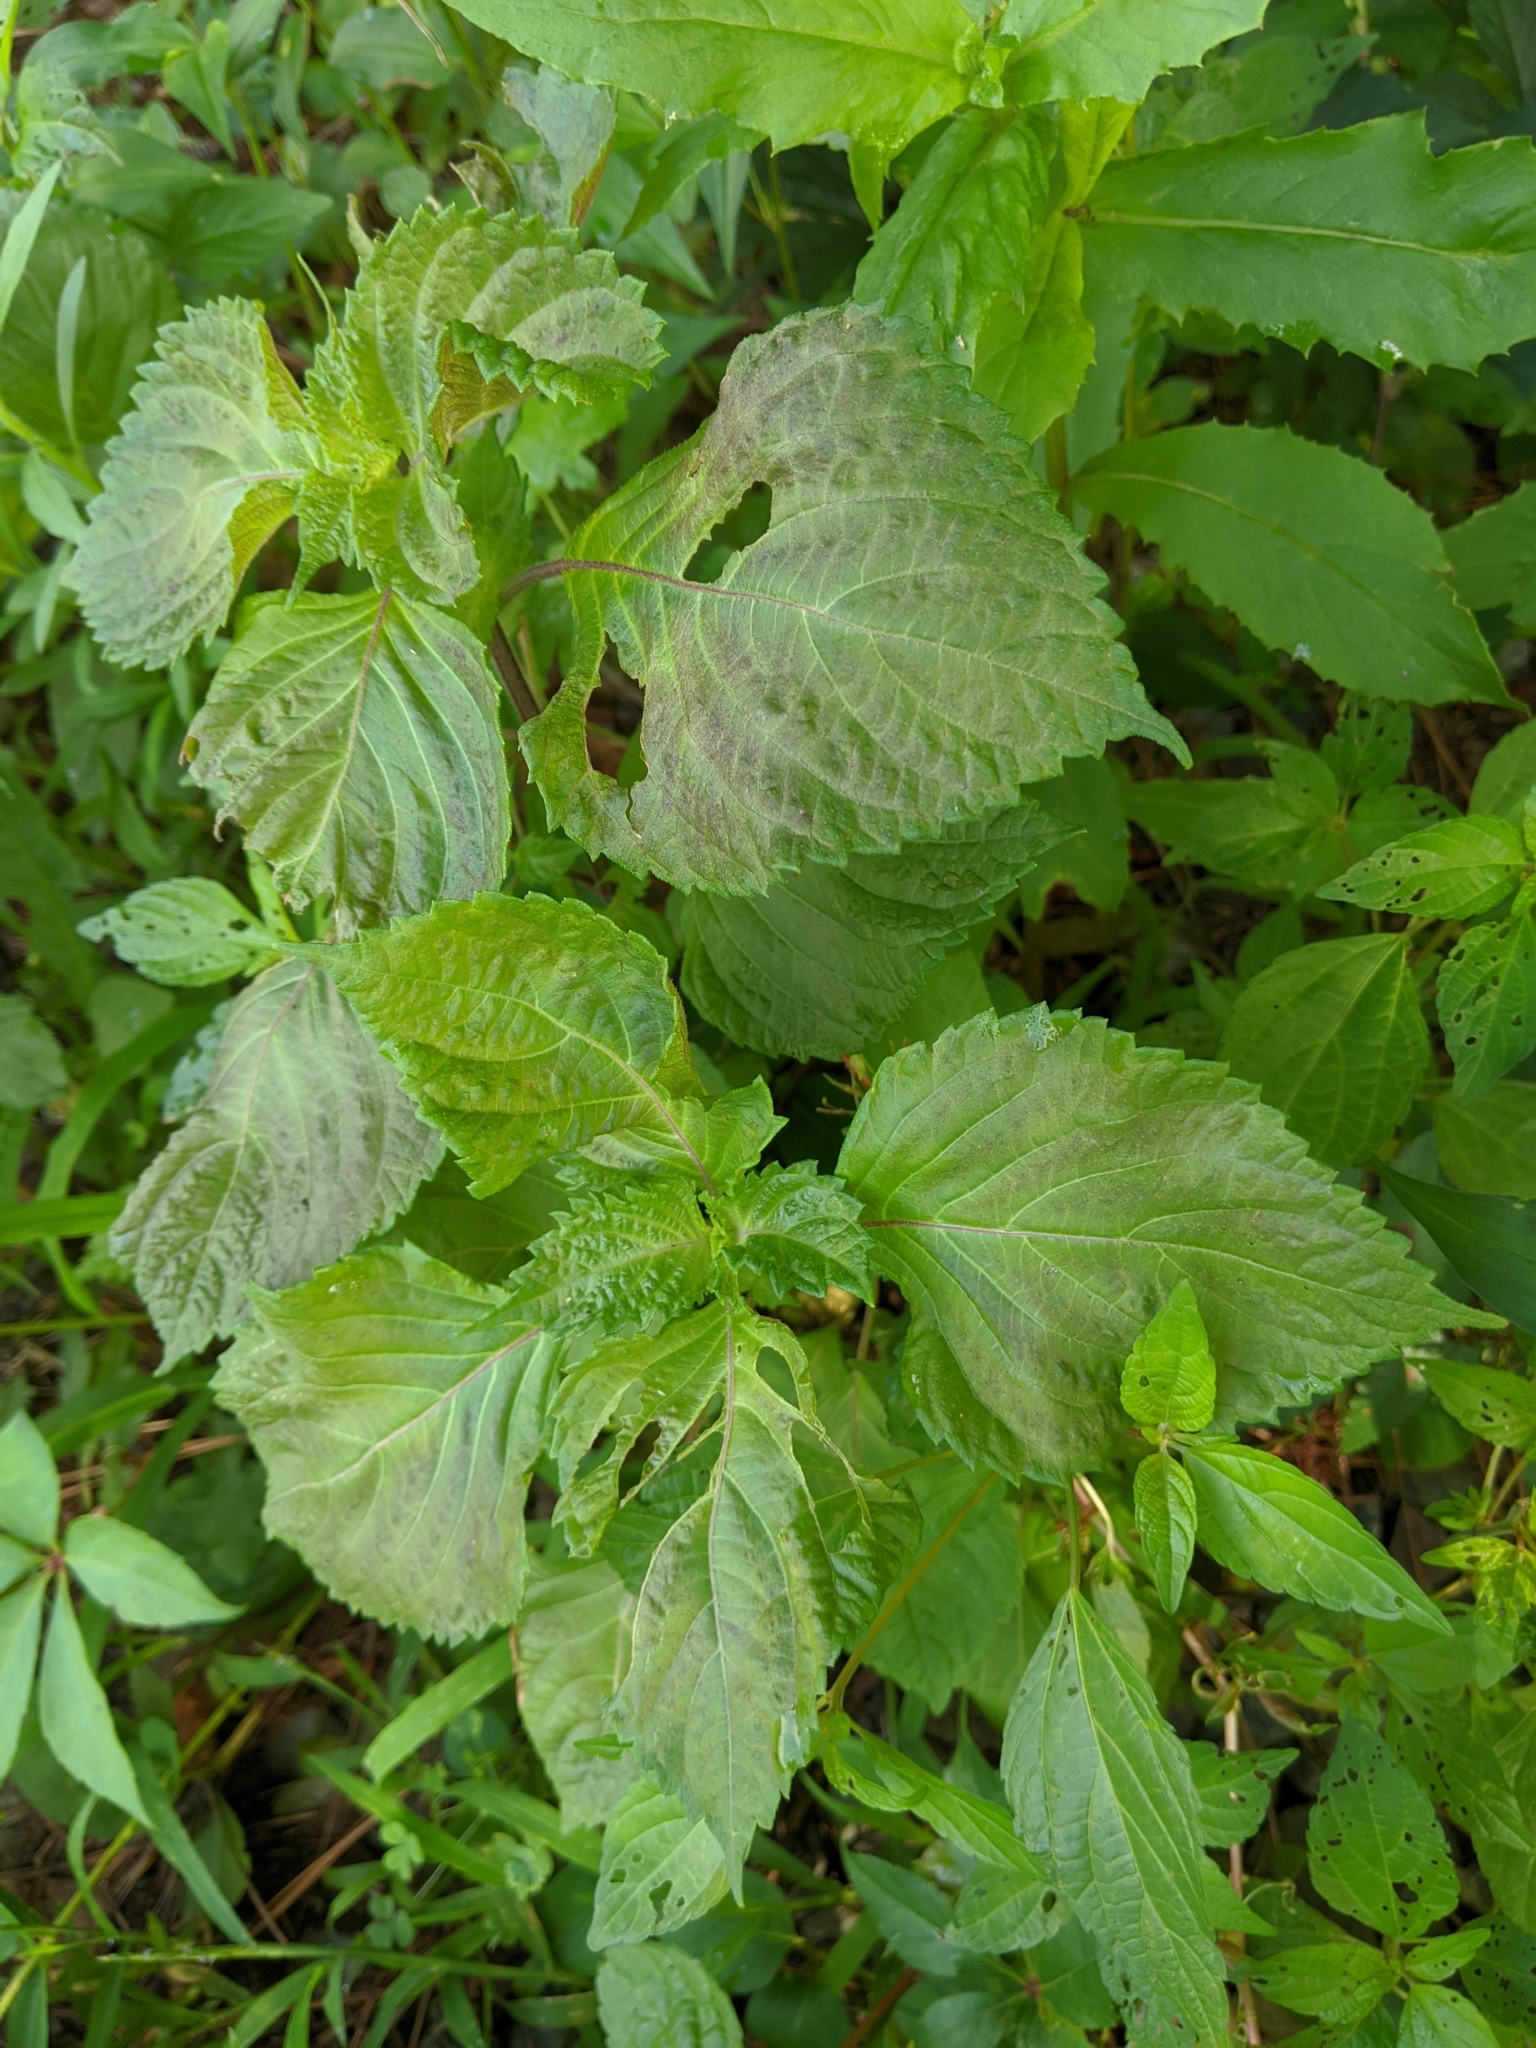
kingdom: Plantae
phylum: Tracheophyta
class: Magnoliopsida
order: Lamiales
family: Lamiaceae
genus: Perilla
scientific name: Perilla frutescens
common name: Perilla
